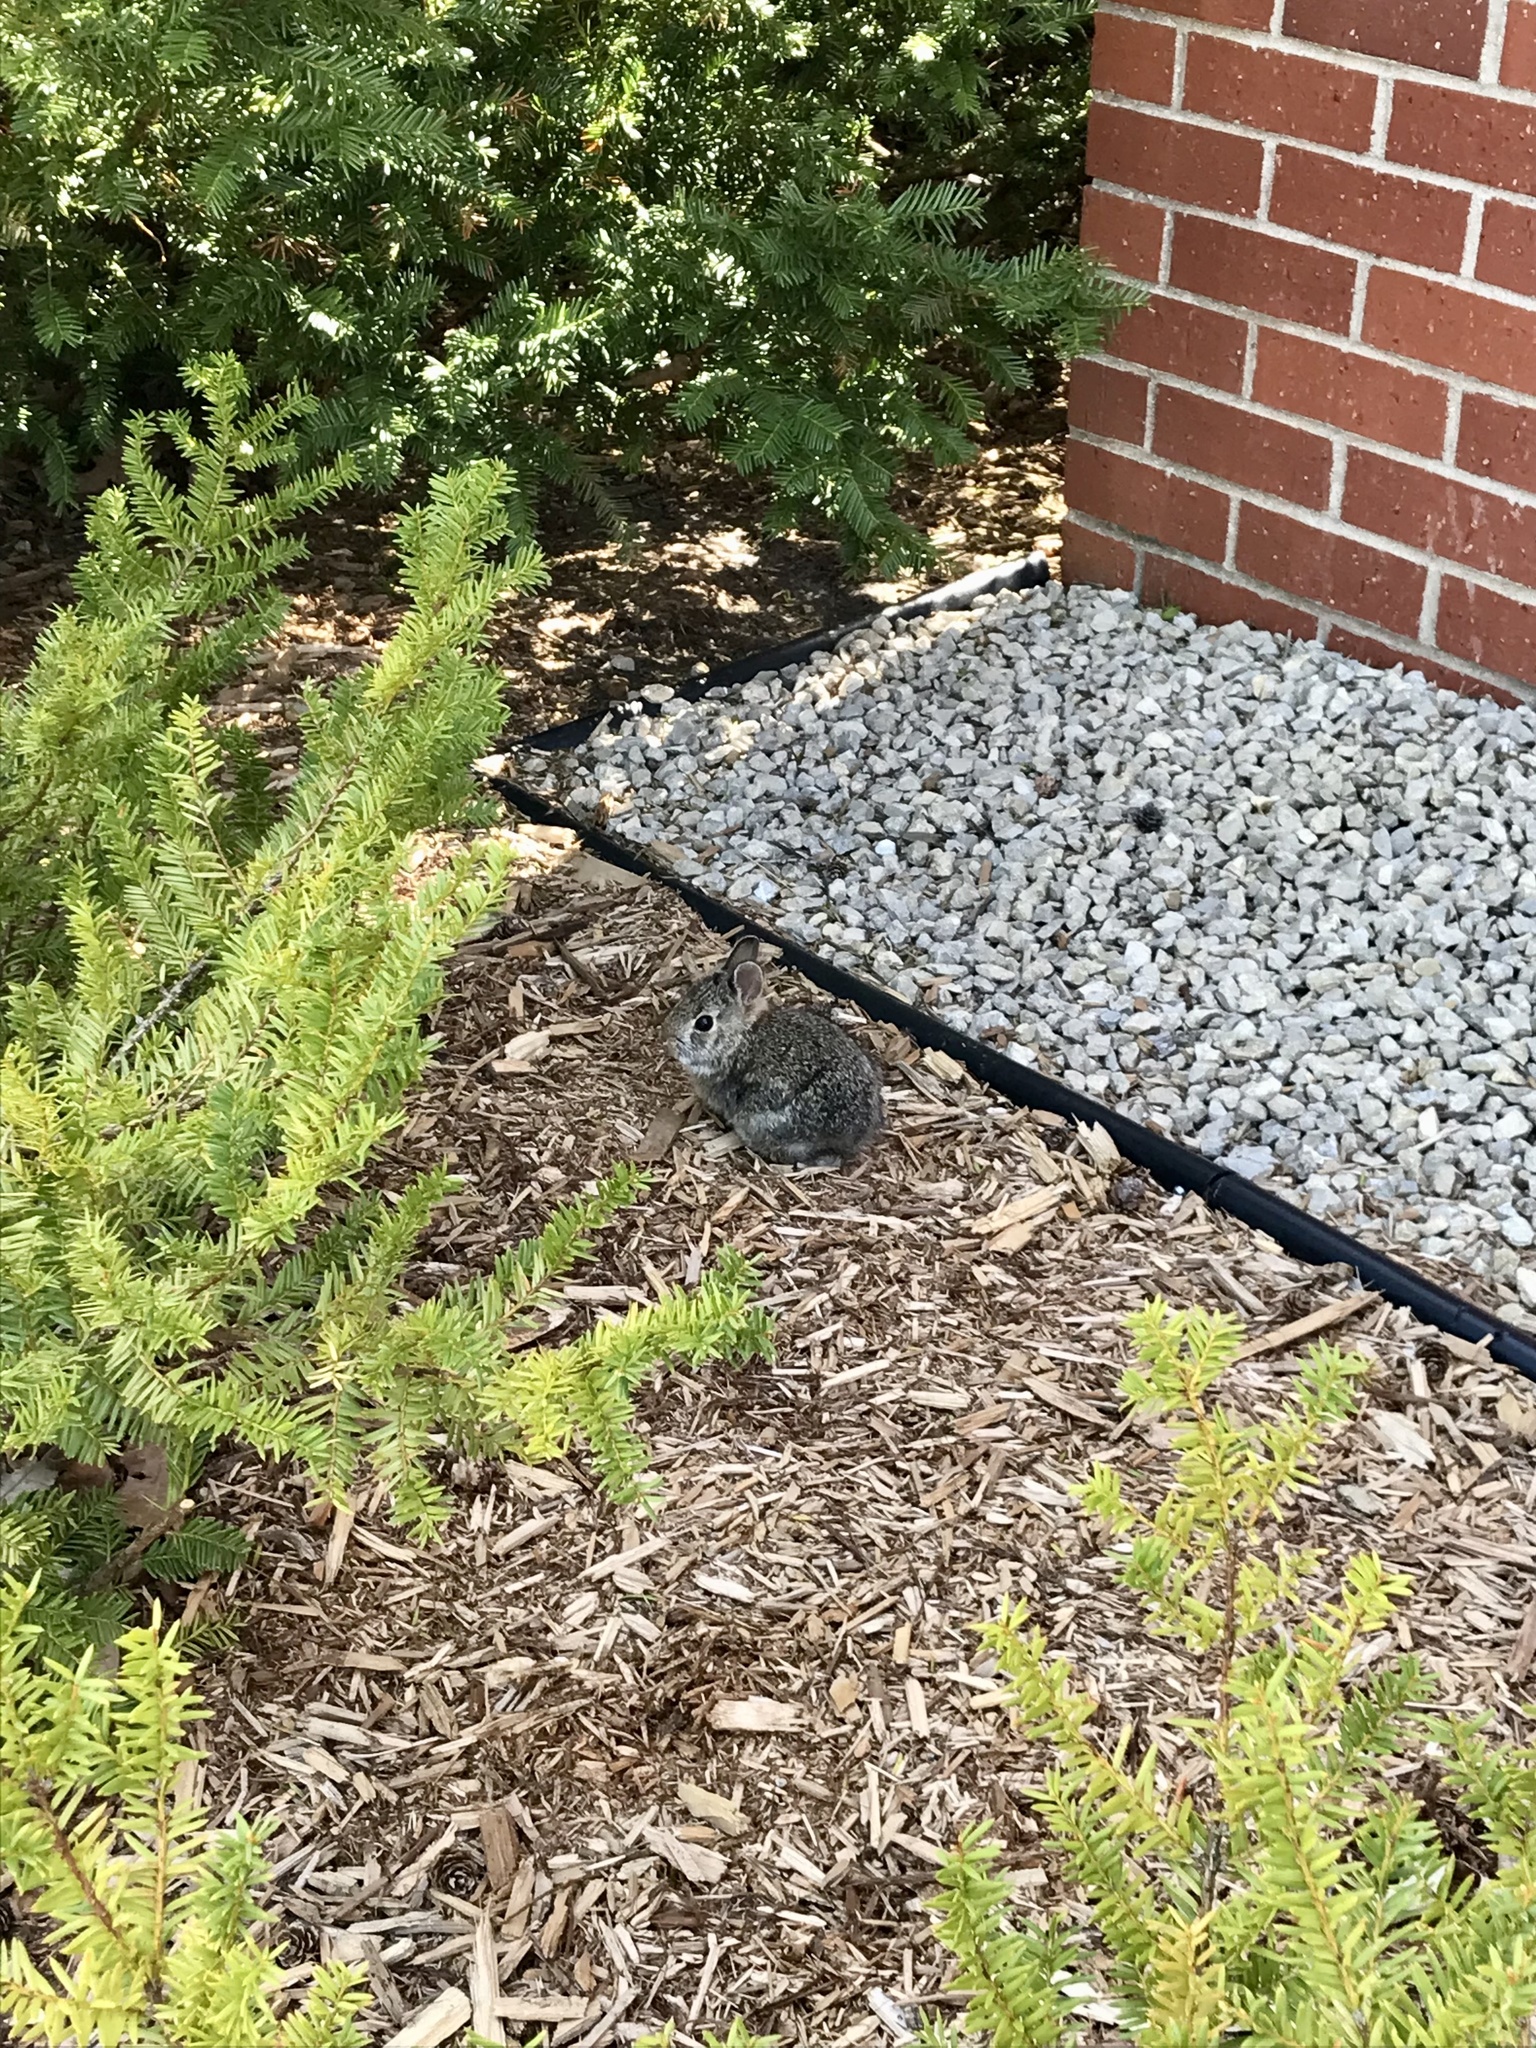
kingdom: Animalia
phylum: Chordata
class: Mammalia
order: Lagomorpha
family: Leporidae
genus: Sylvilagus
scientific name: Sylvilagus floridanus
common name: Eastern cottontail
